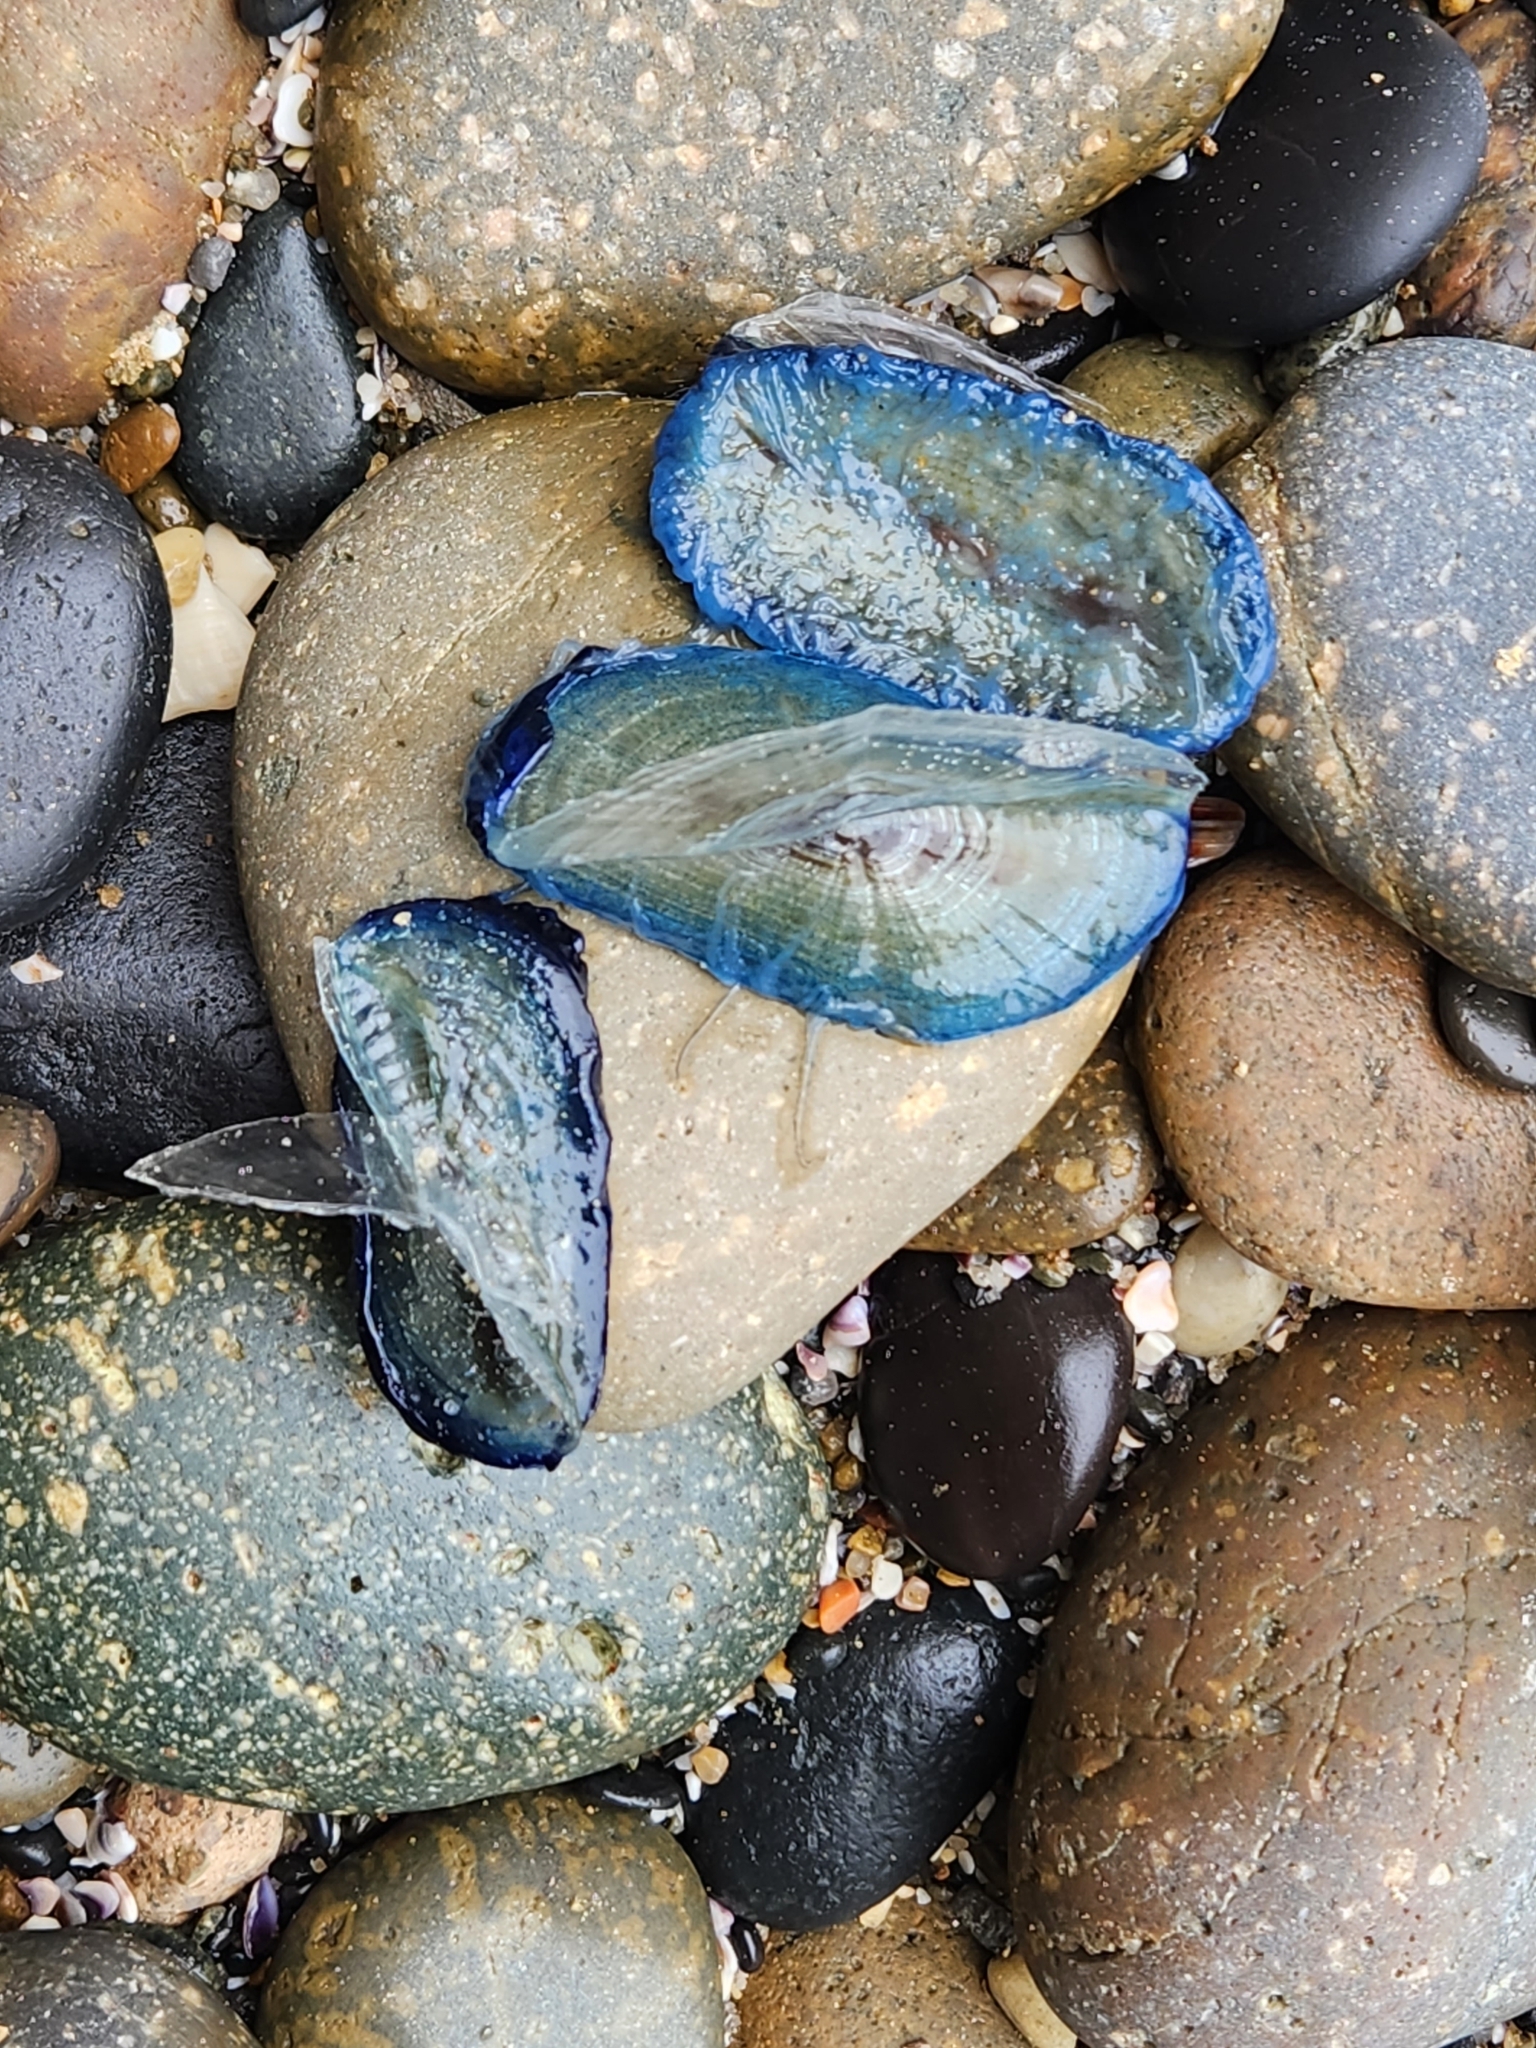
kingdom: Animalia
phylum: Cnidaria
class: Hydrozoa
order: Anthoathecata
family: Porpitidae
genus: Velella
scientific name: Velella velella
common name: By-the-wind-sailor
